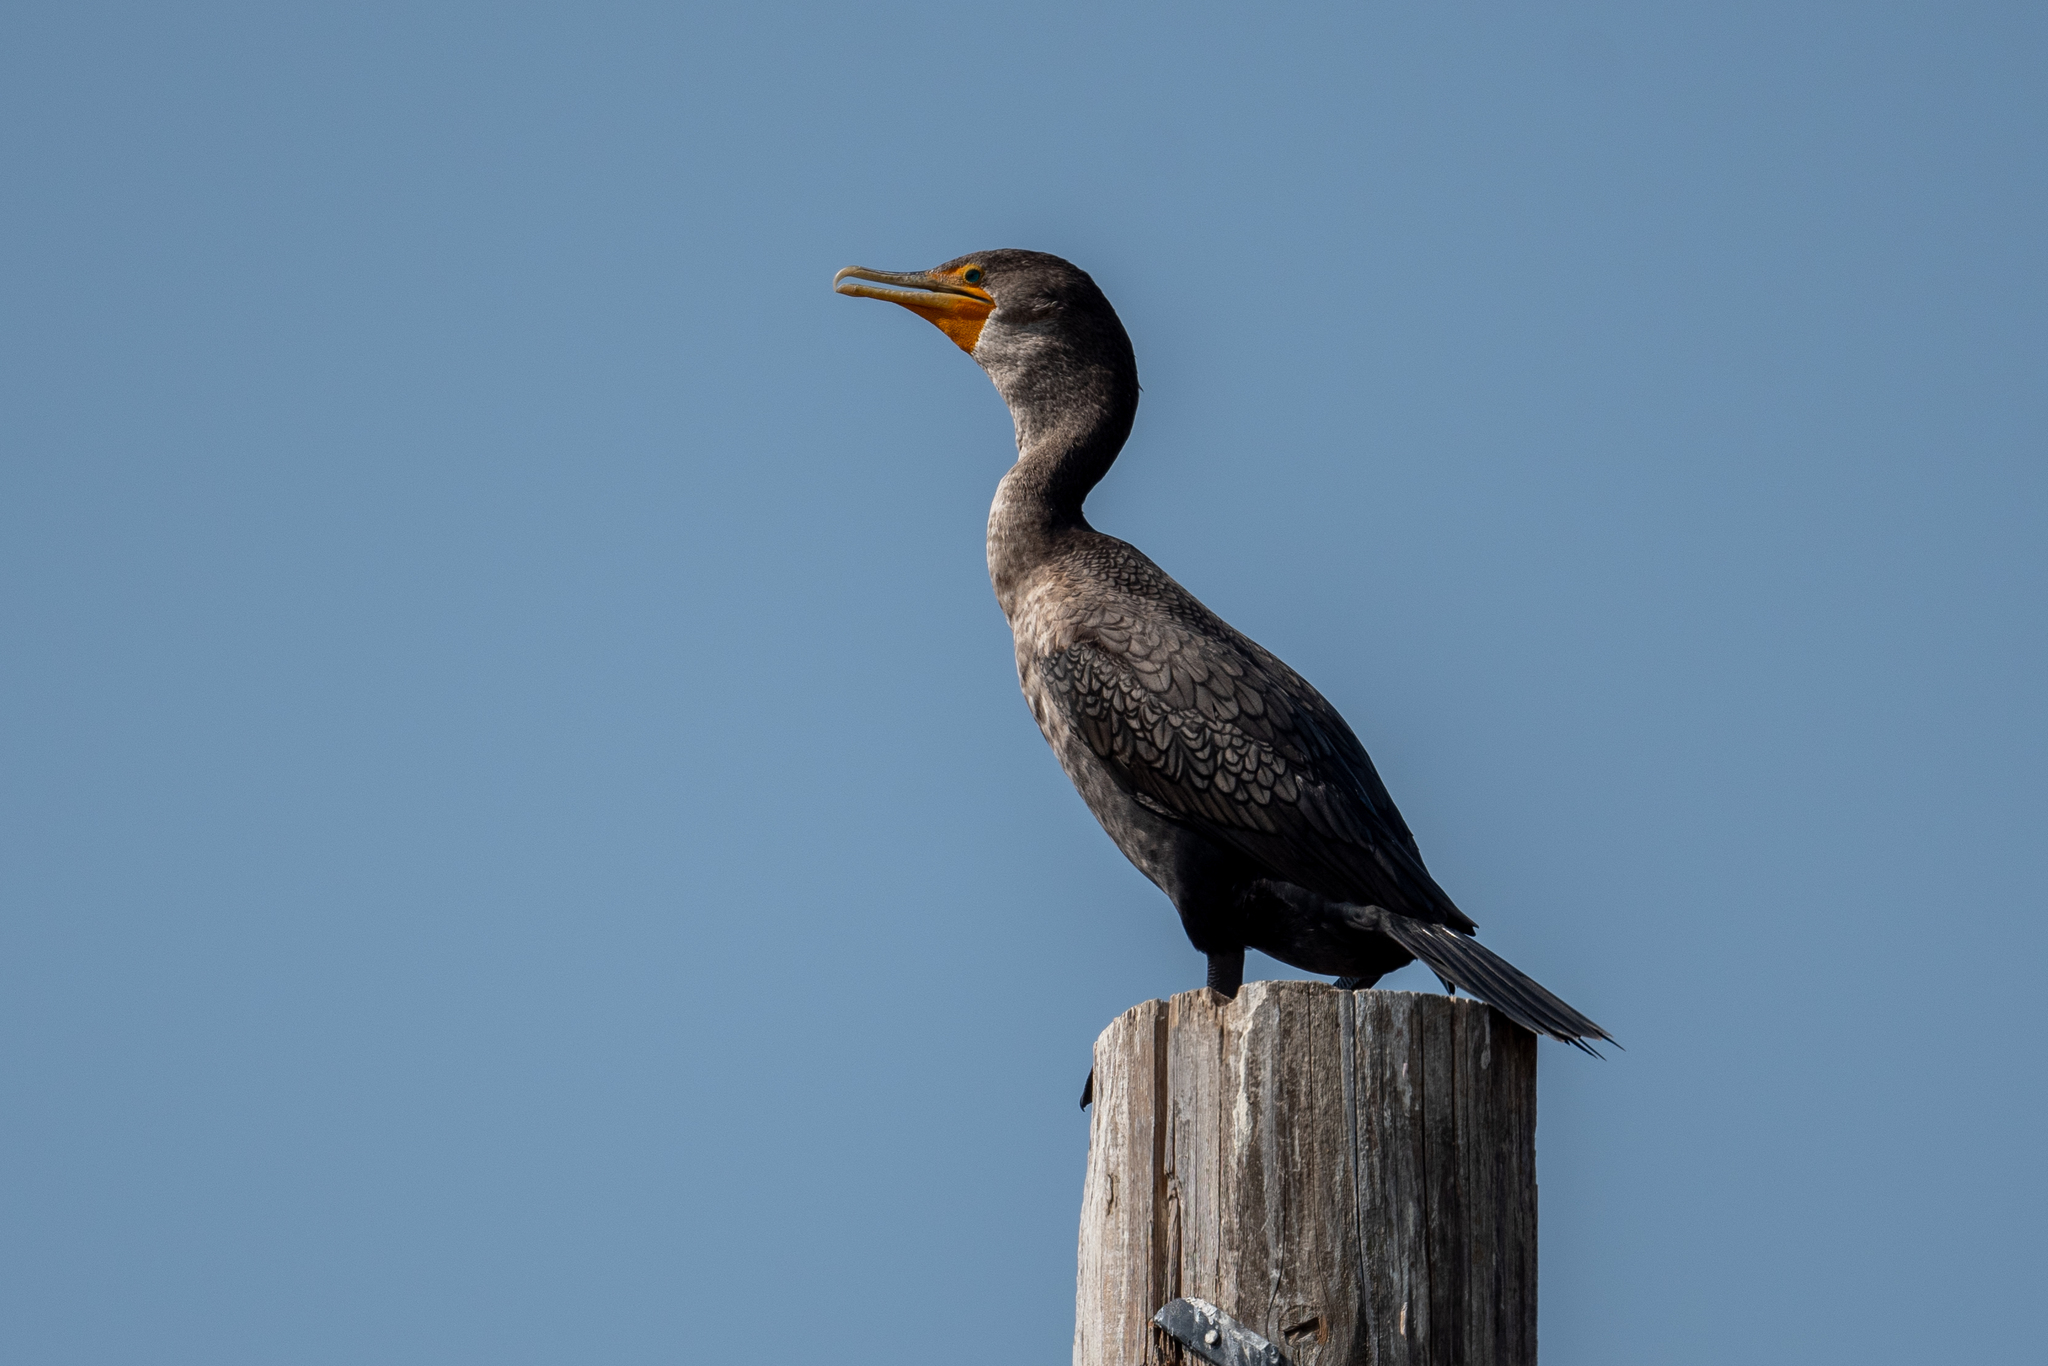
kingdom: Animalia
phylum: Chordata
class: Aves
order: Suliformes
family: Phalacrocoracidae
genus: Phalacrocorax
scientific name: Phalacrocorax auritus
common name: Double-crested cormorant
